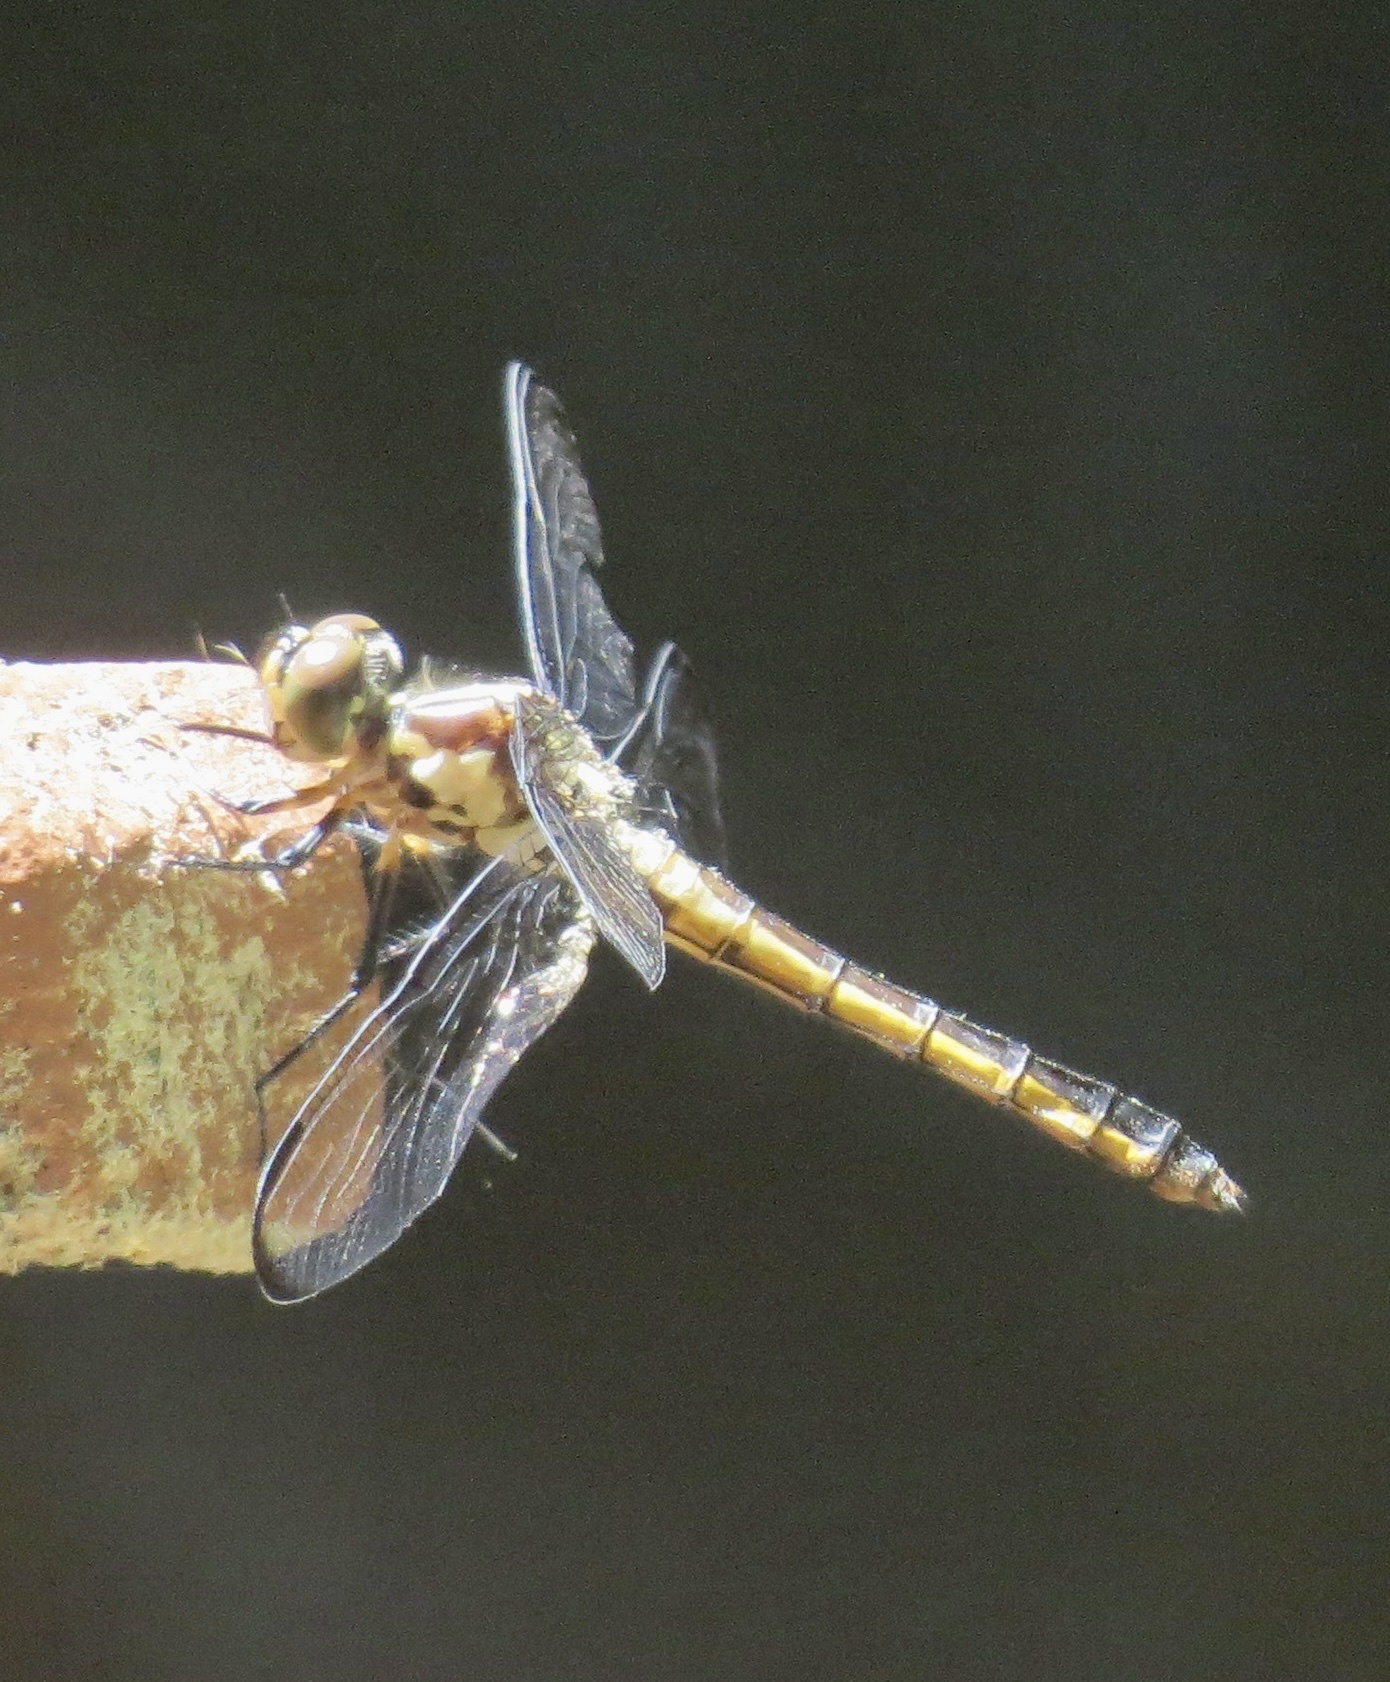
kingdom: Animalia
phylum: Arthropoda
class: Insecta
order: Odonata
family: Libellulidae
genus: Libellula
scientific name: Libellula incesta
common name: Slaty skimmer
